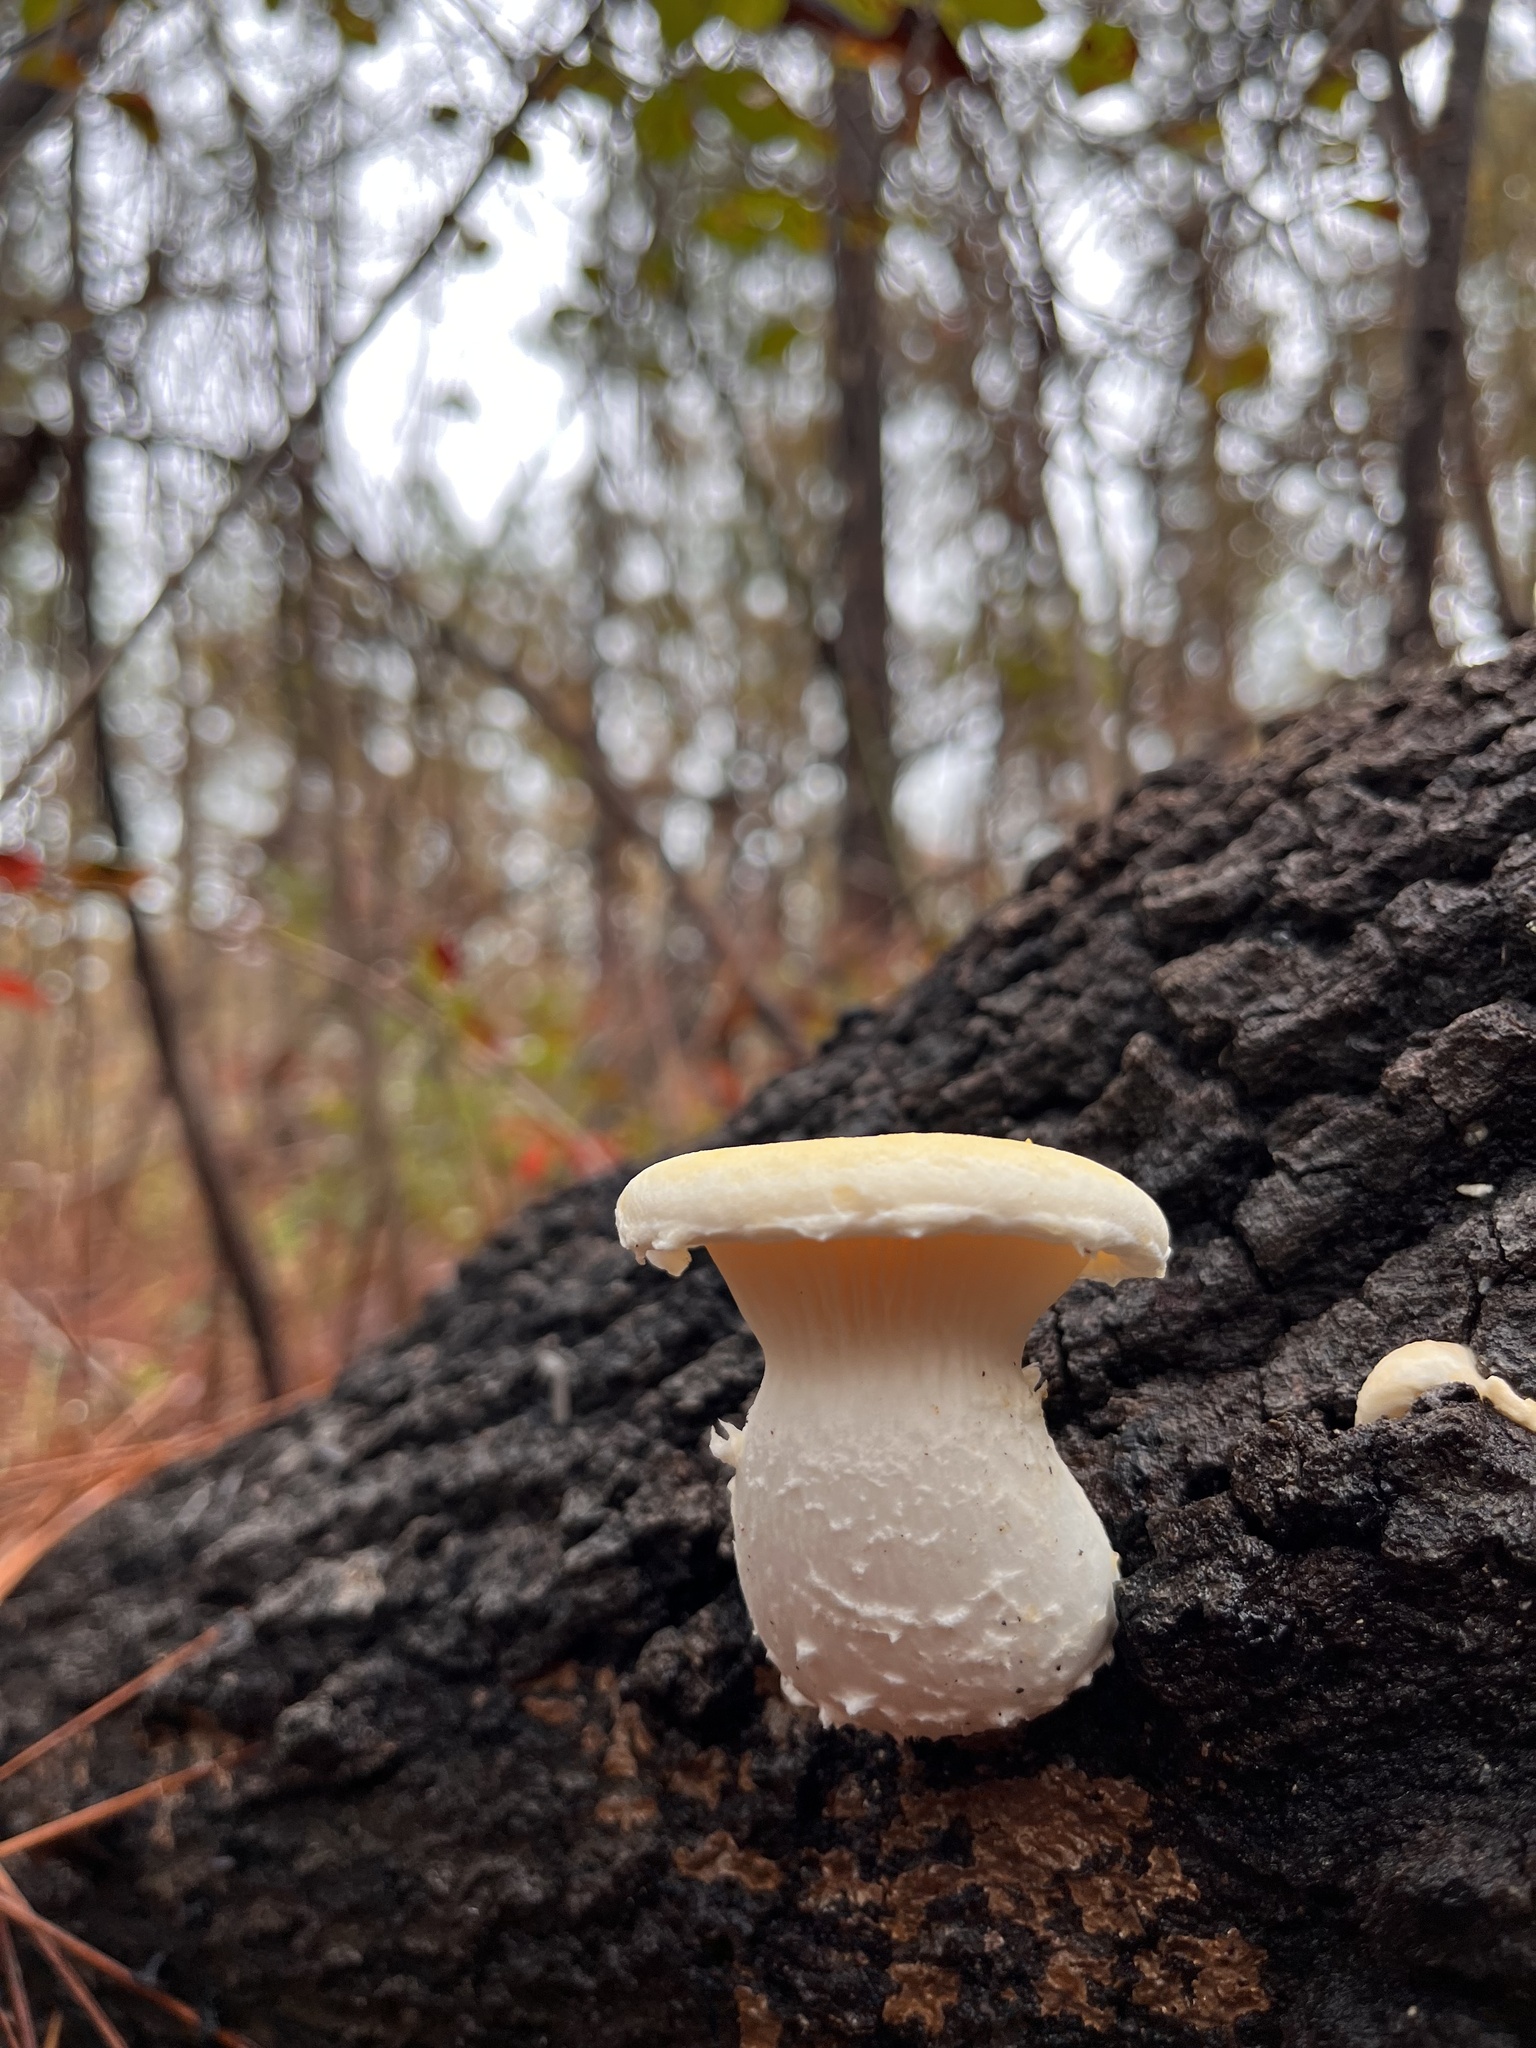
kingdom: Fungi
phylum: Basidiomycota
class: Agaricomycetes
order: Polyporales
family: Polyporaceae
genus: Lentinus
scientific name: Lentinus levis
